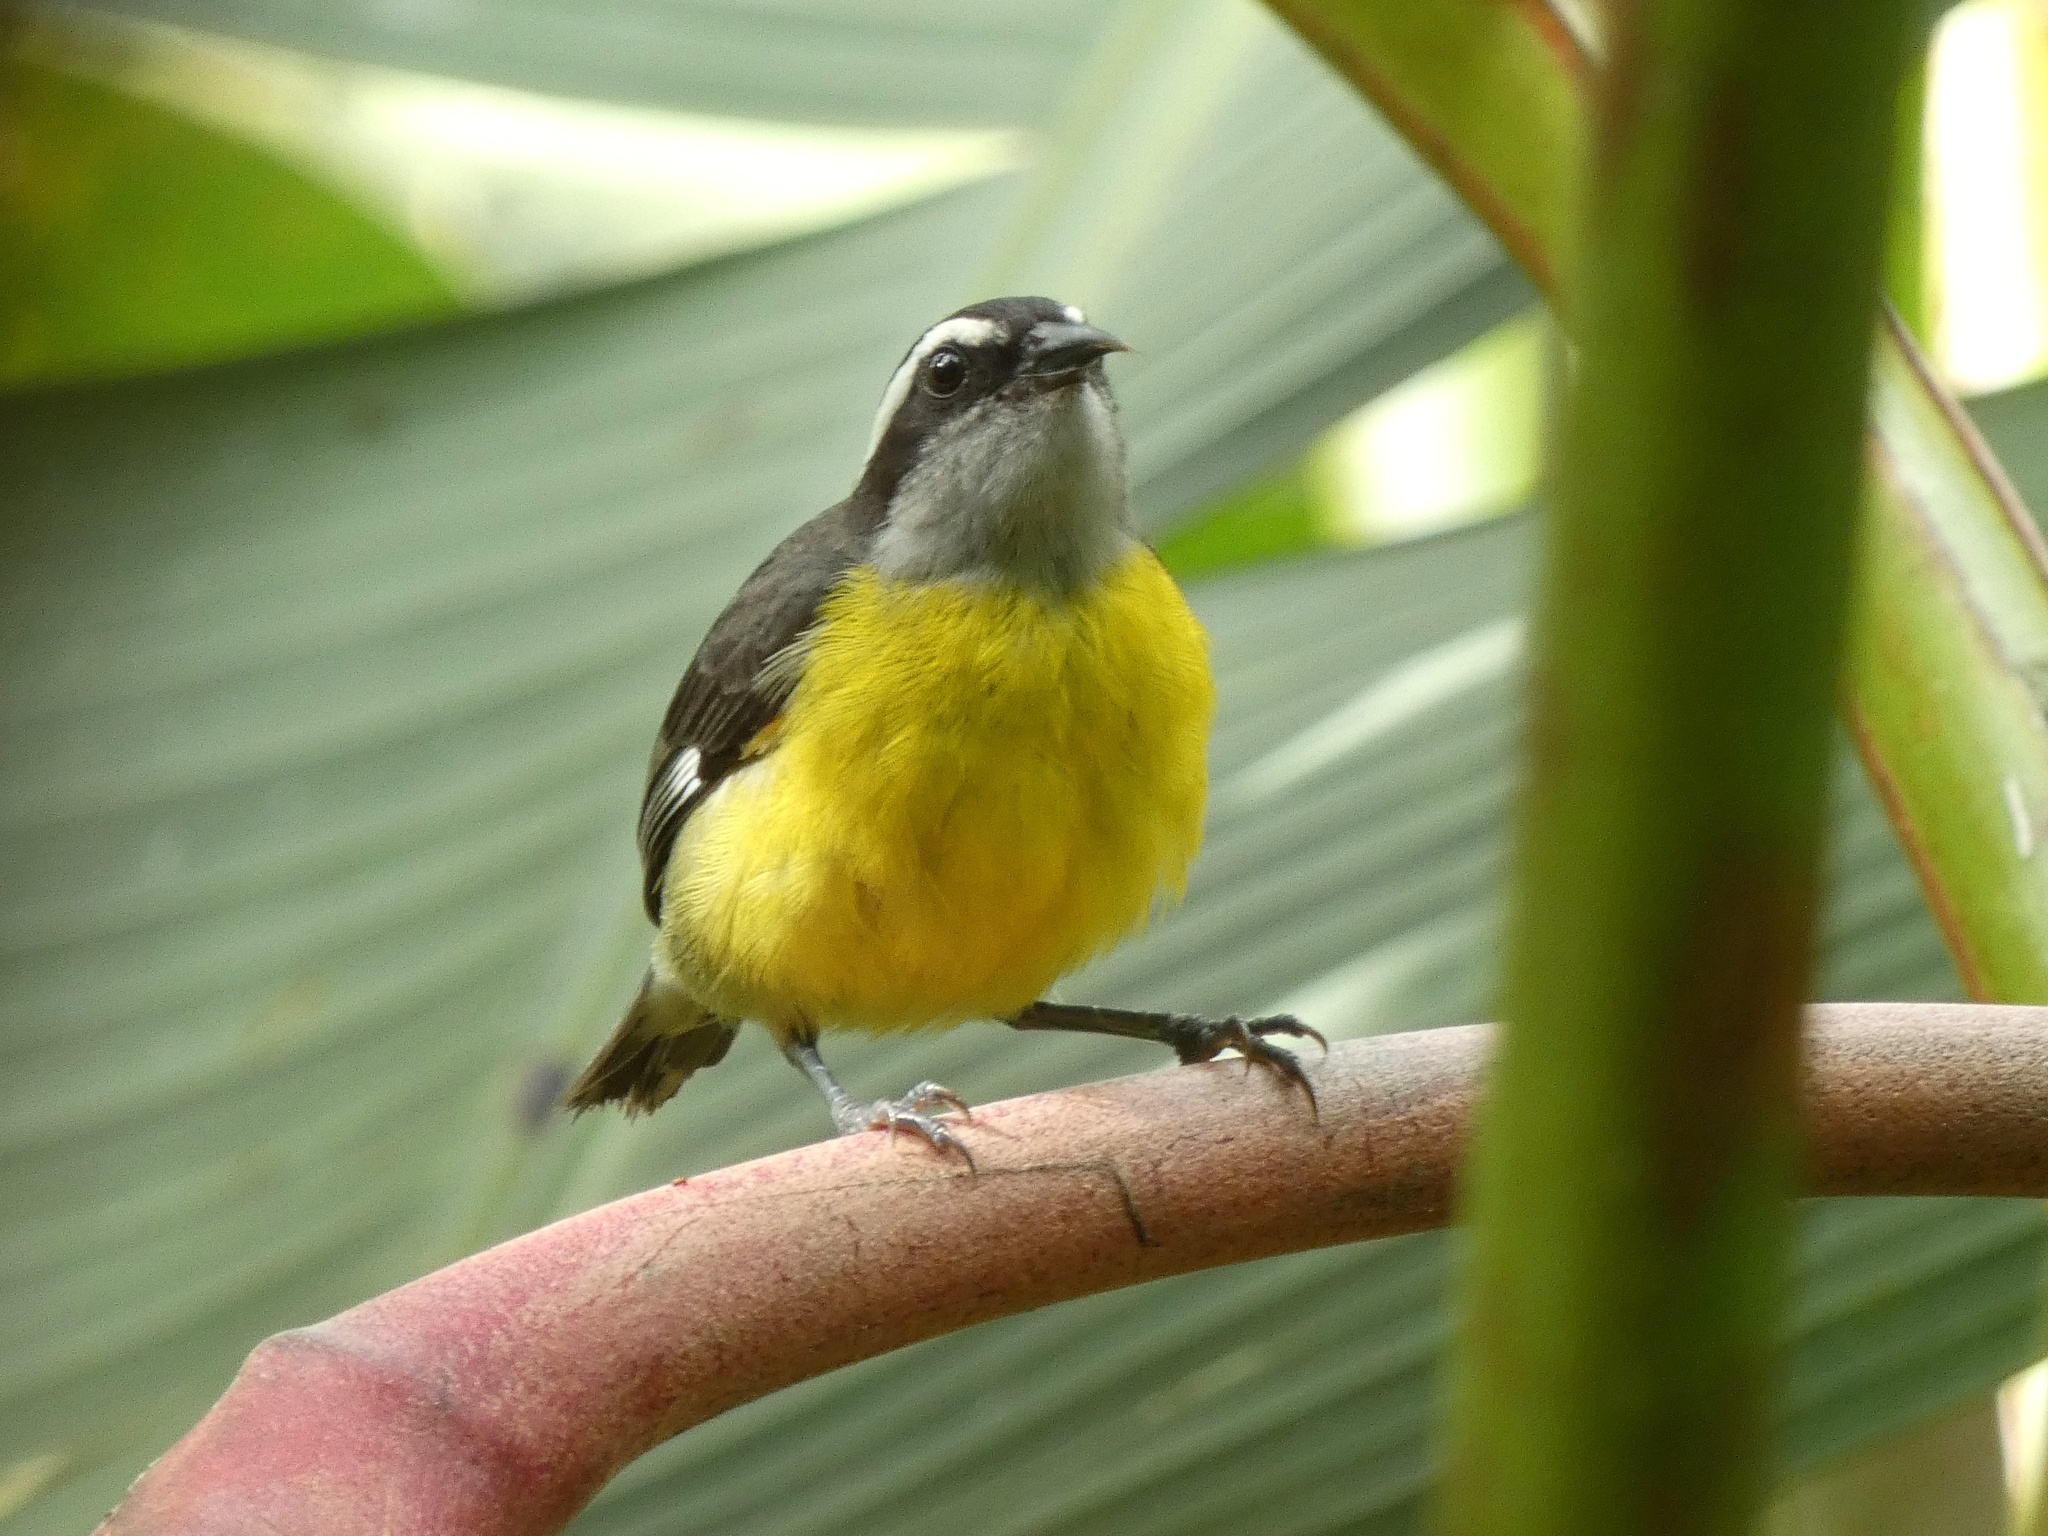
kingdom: Animalia
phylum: Chordata
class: Aves
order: Passeriformes
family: Thraupidae
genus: Coereba
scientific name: Coereba flaveola
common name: Bananaquit
